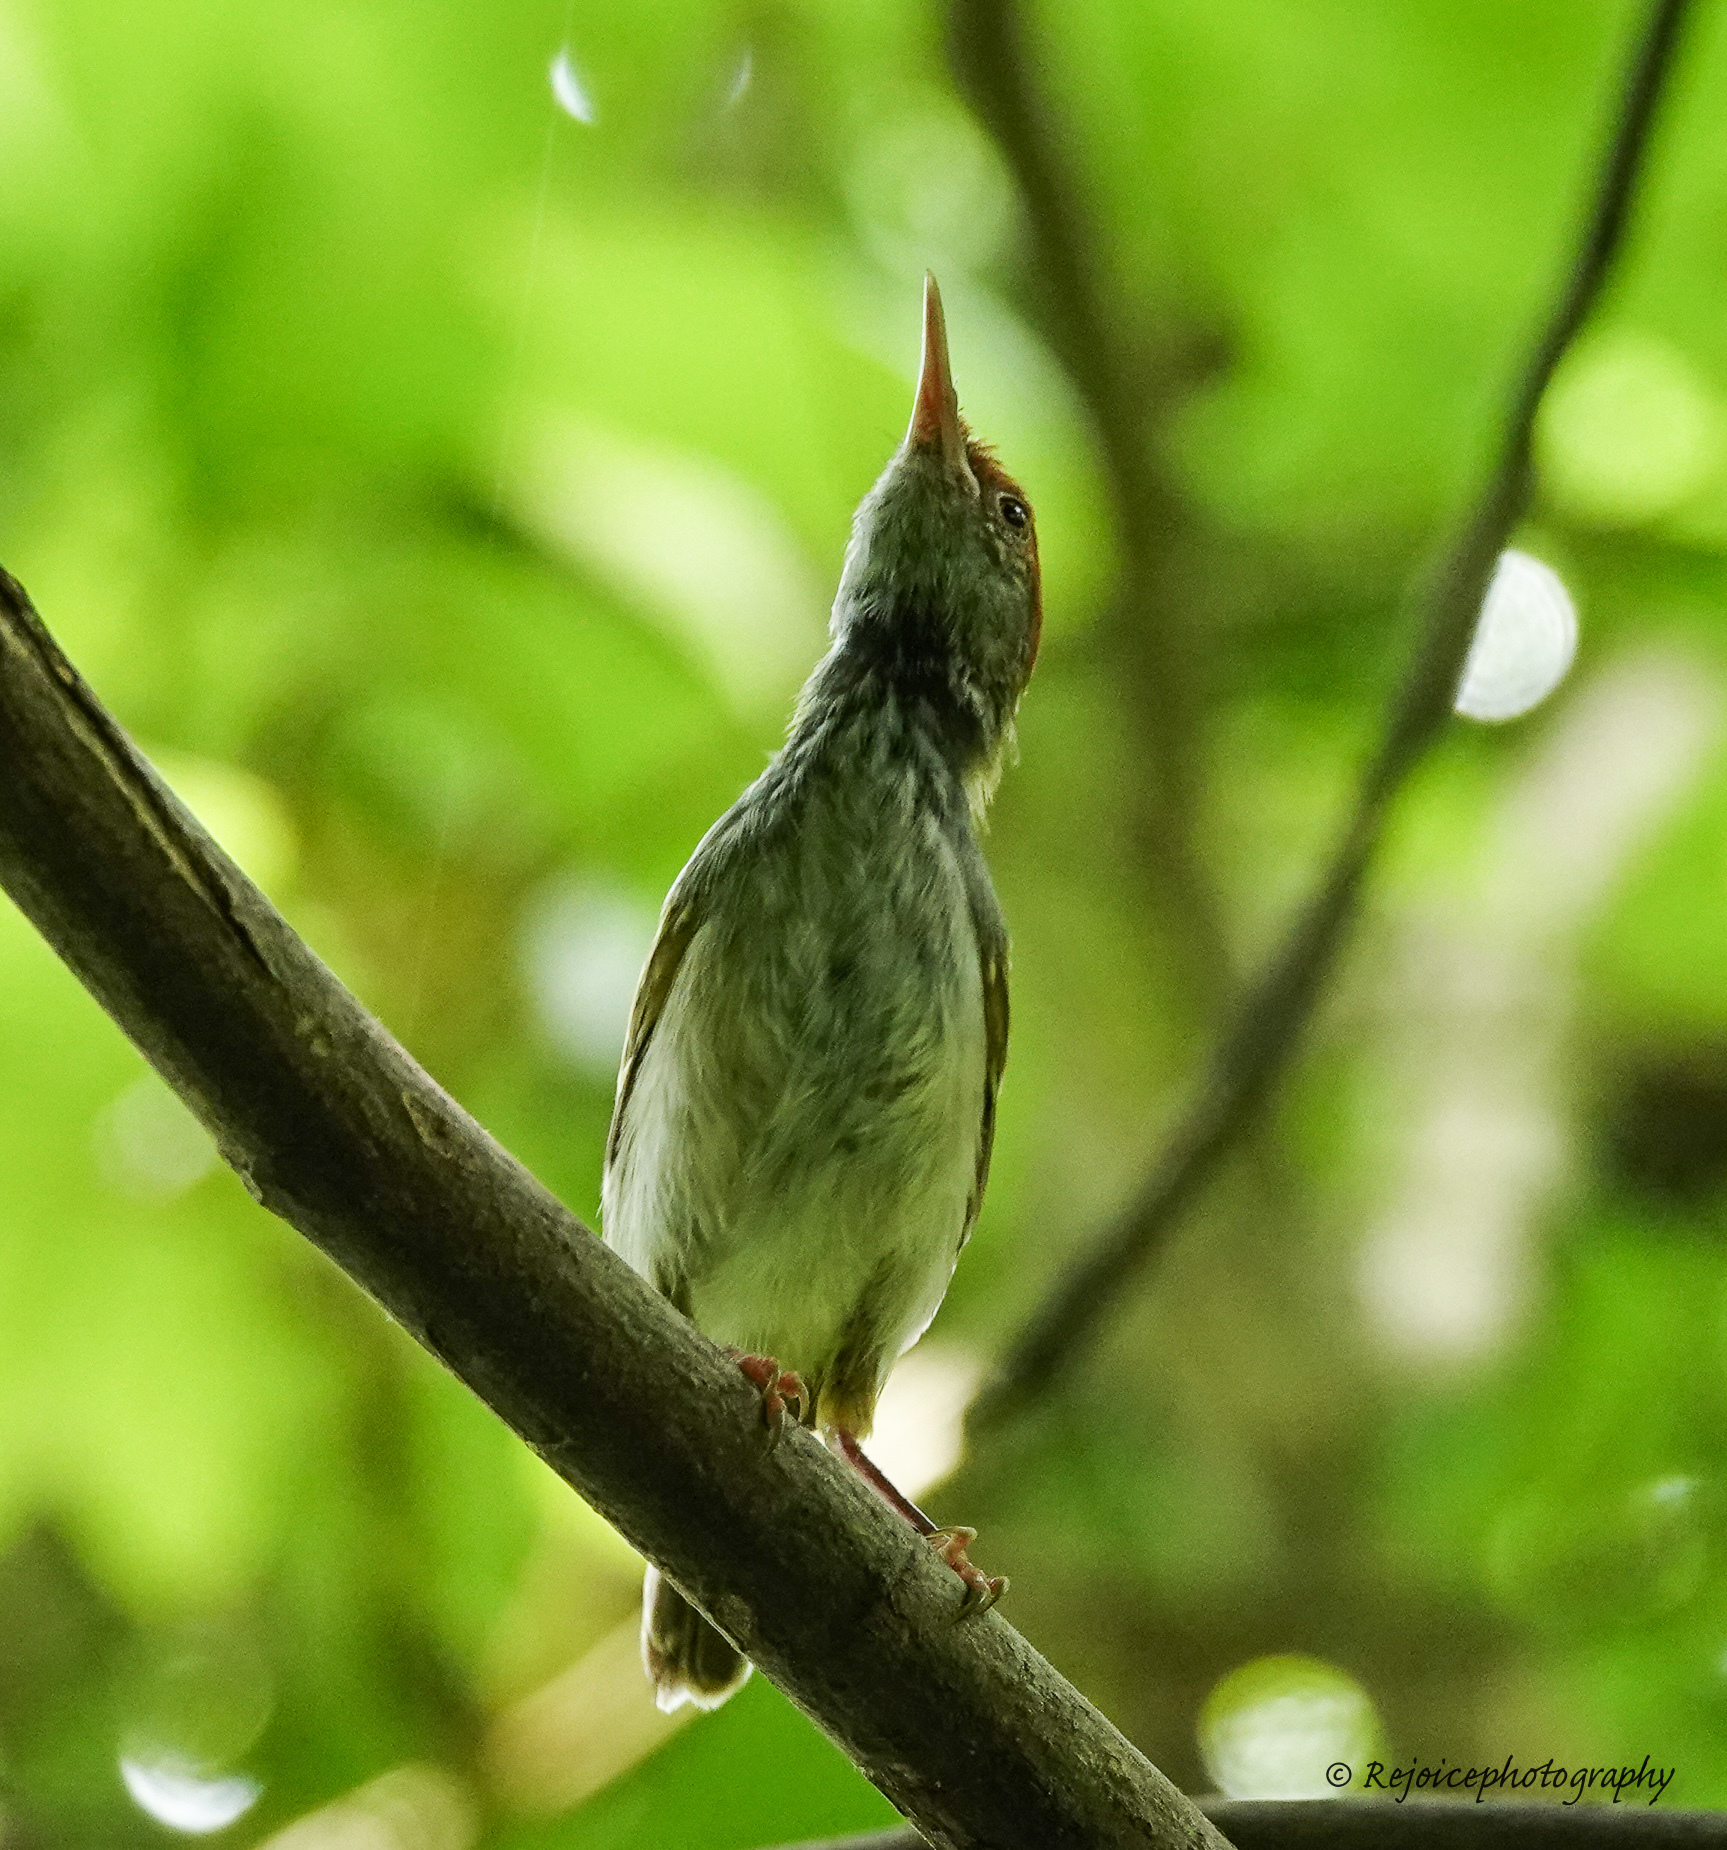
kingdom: Animalia
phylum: Chordata
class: Aves
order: Passeriformes
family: Cisticolidae
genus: Orthotomus
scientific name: Orthotomus atrogularis
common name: Dark-necked tailorbird
